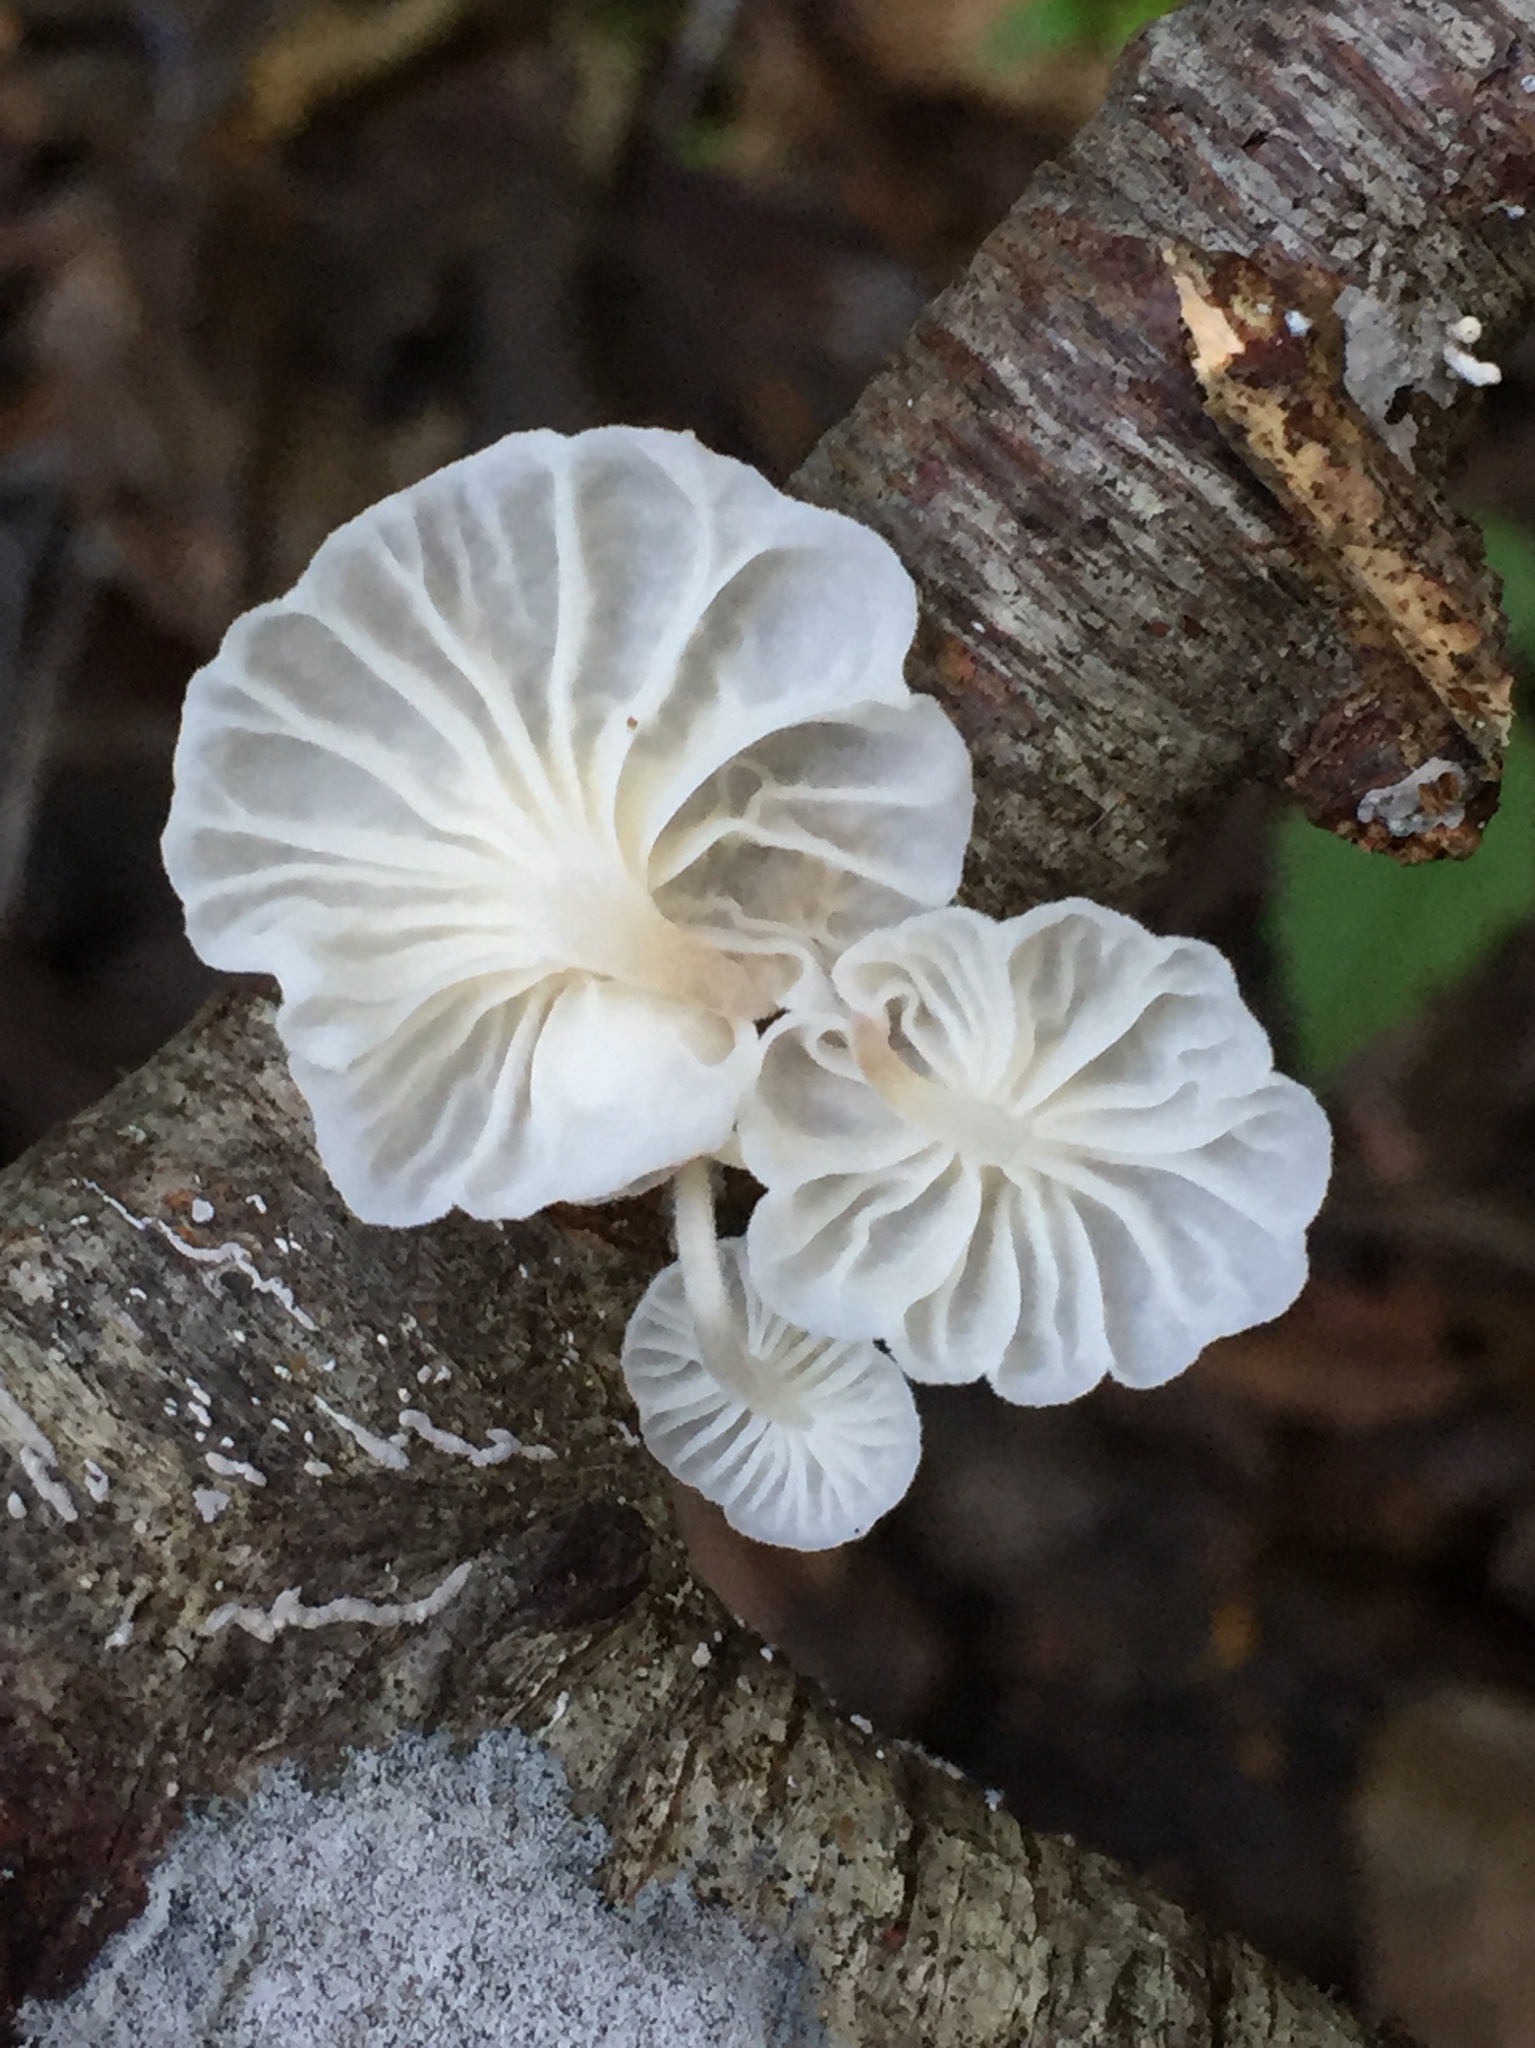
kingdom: Fungi
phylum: Basidiomycota
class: Agaricomycetes
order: Agaricales
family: Omphalotaceae
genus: Marasmiellus
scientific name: Marasmiellus candidus
